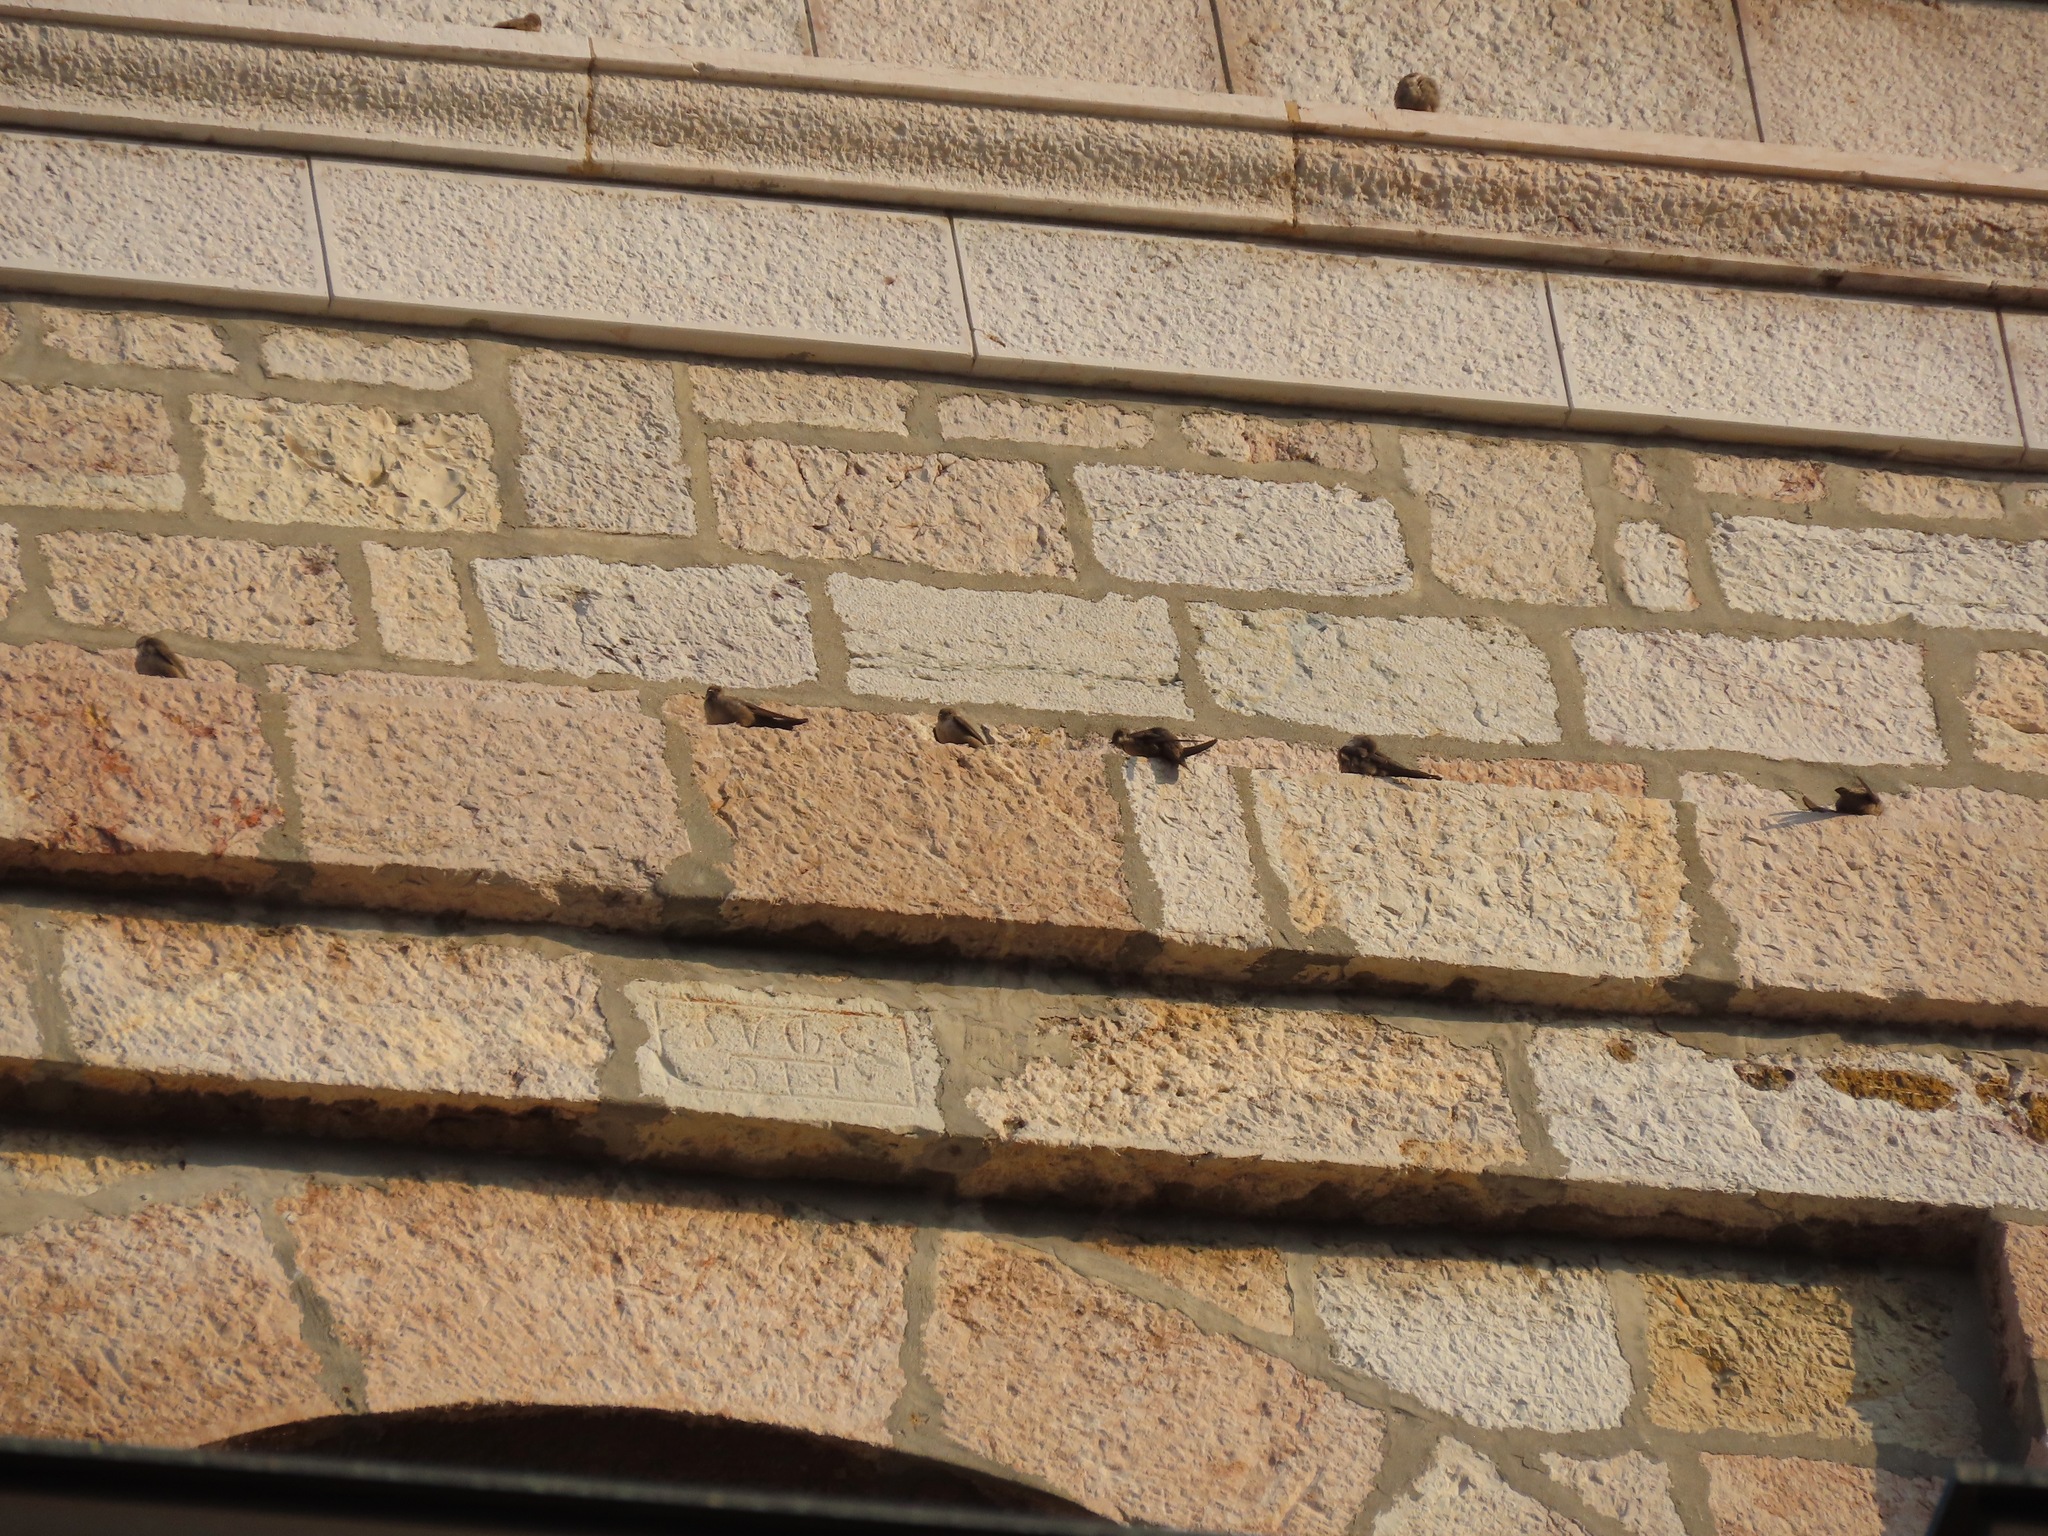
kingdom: Animalia
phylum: Chordata
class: Aves
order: Passeriformes
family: Hirundinidae
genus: Ptyonoprogne
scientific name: Ptyonoprogne rupestris
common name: Eurasian crag martin
